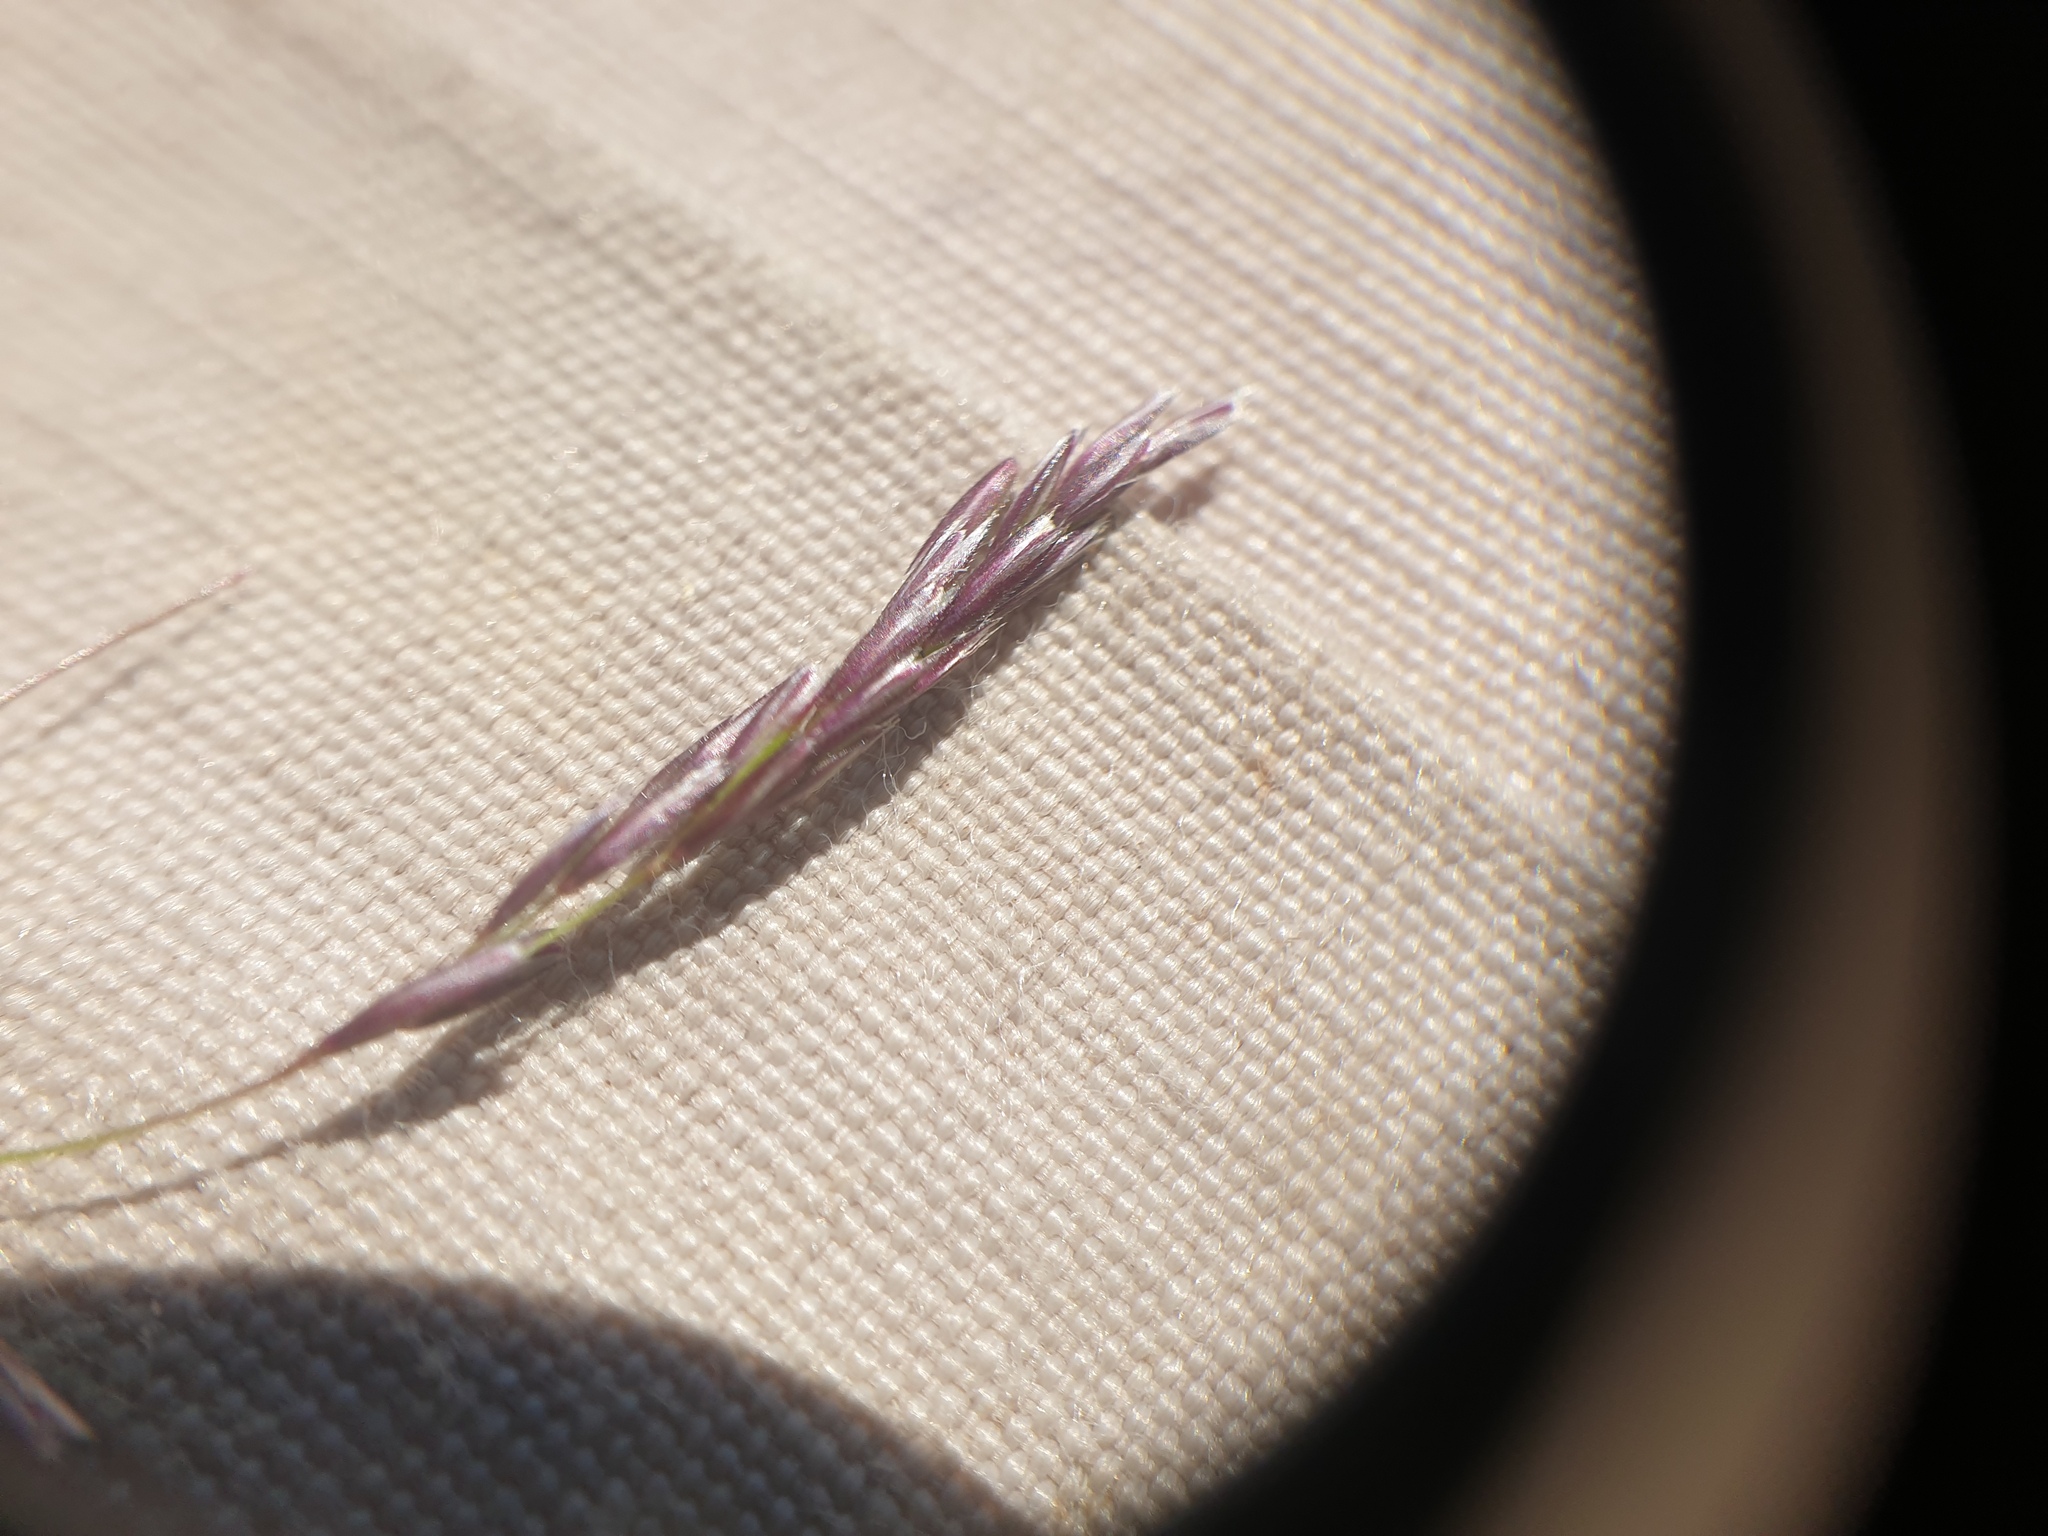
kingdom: Plantae
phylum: Tracheophyta
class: Liliopsida
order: Poales
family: Poaceae
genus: Cinna
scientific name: Cinna latifolia
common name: Drooping woodreed
